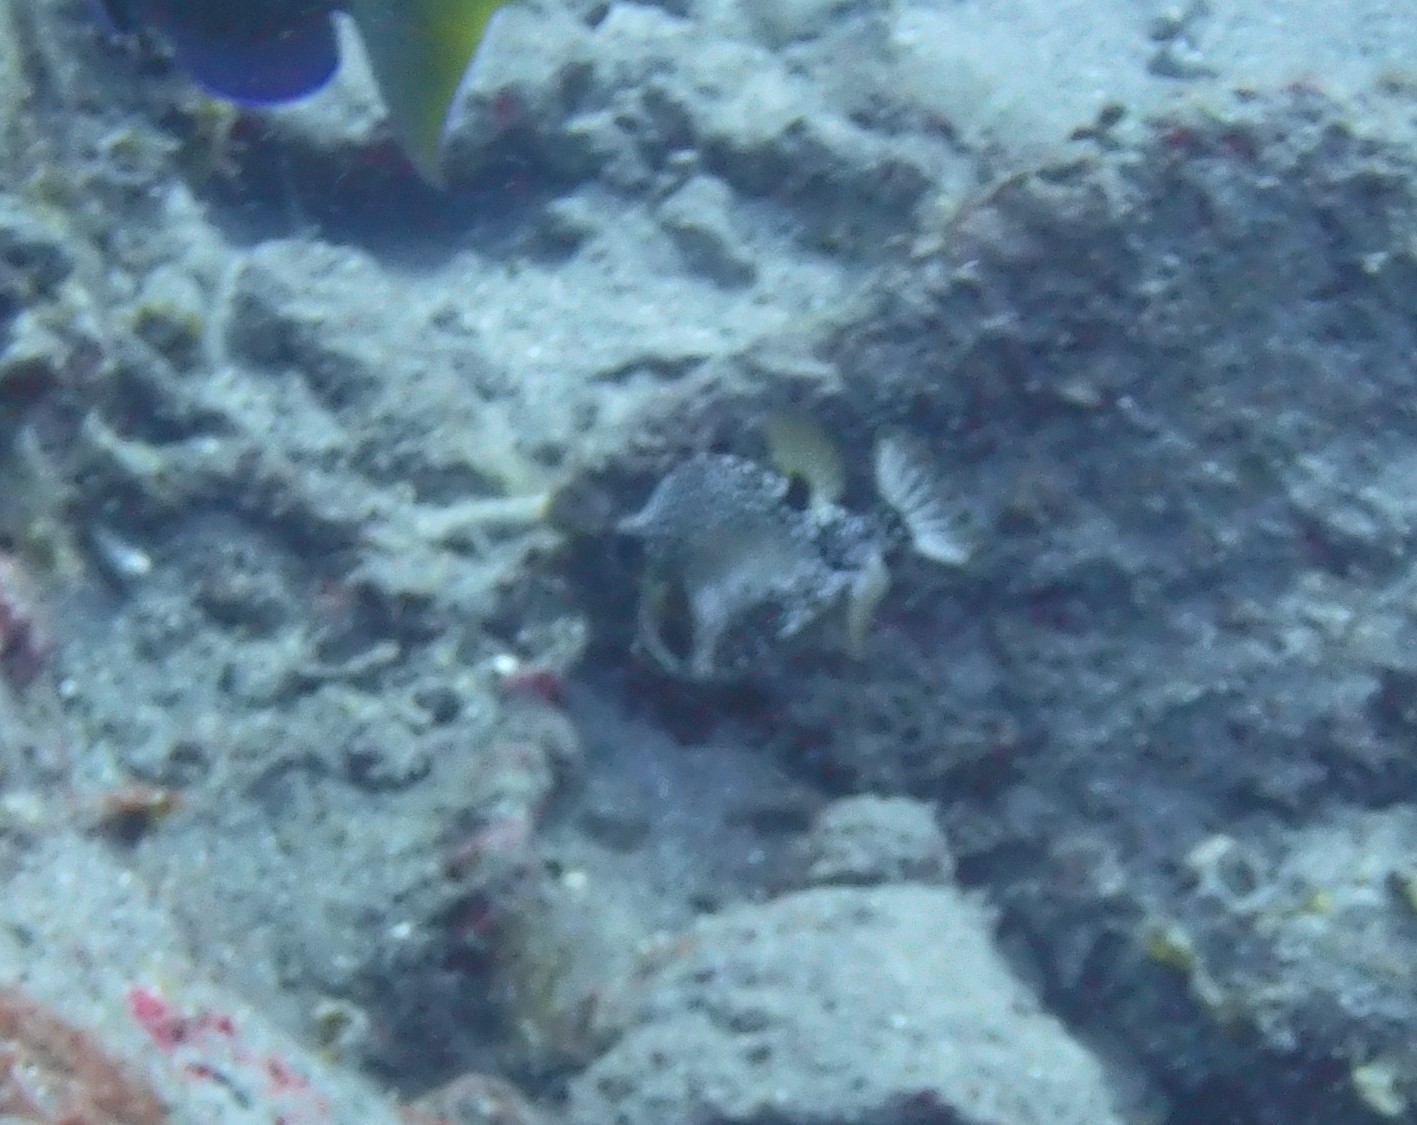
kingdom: Animalia
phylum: Chordata
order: Tetraodontiformes
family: Ostraciidae
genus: Lactophrys
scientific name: Lactophrys triqueter
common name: Smooth trunkfish
